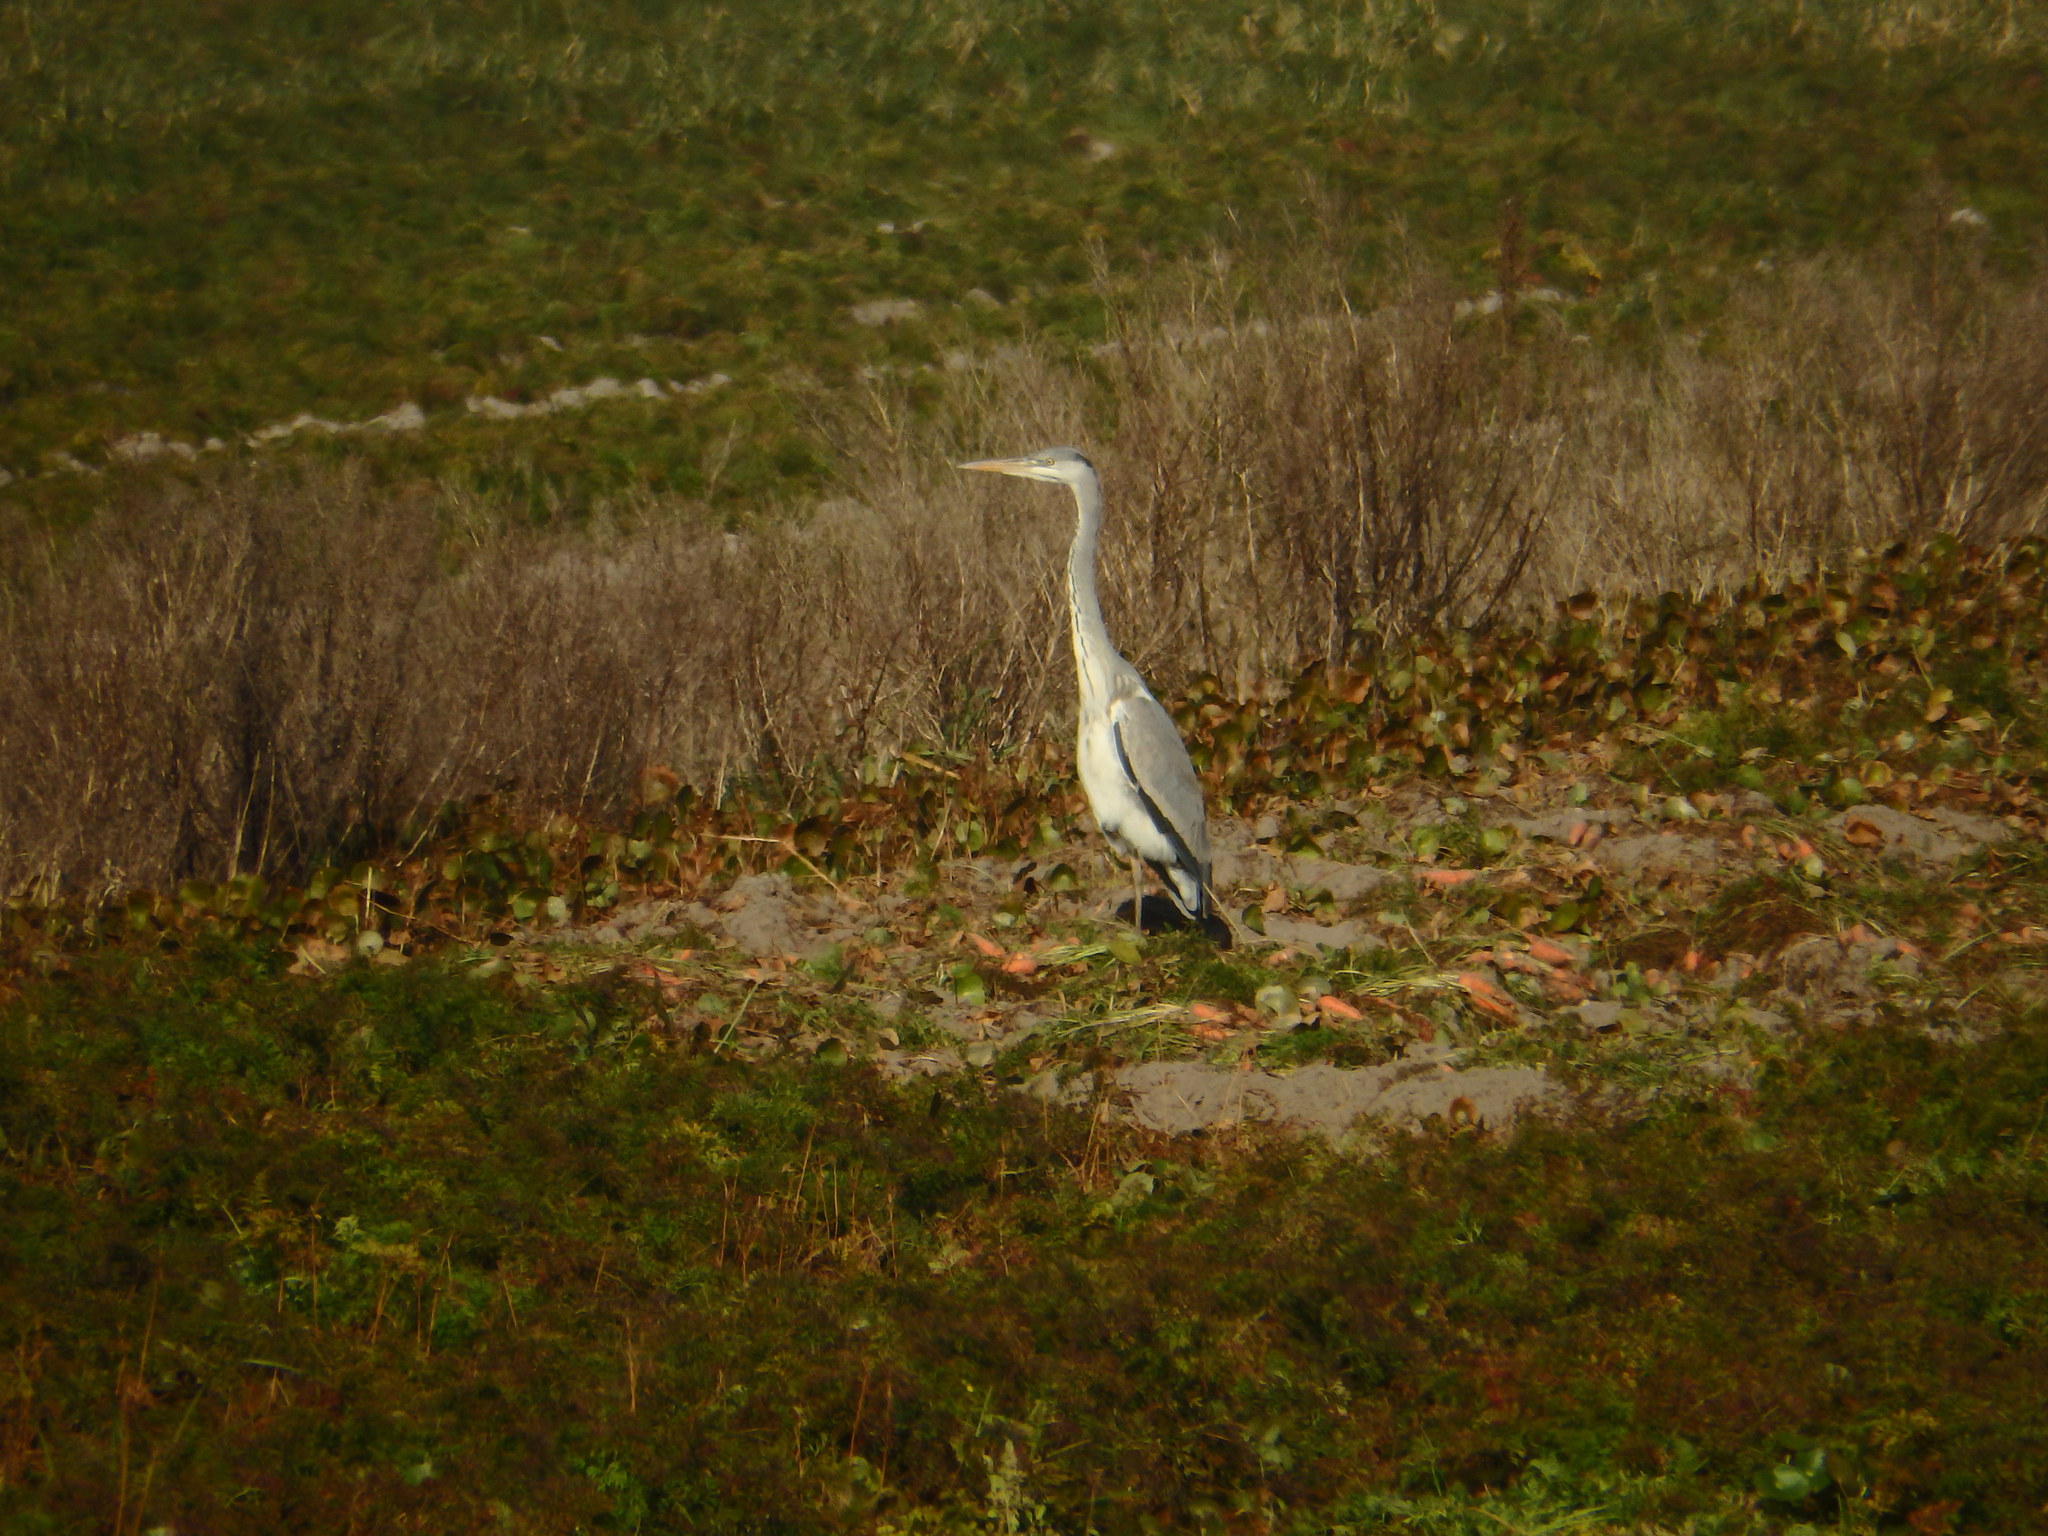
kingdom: Animalia
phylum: Chordata
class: Aves
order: Pelecaniformes
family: Ardeidae
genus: Ardea
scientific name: Ardea cinerea
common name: Grey heron
